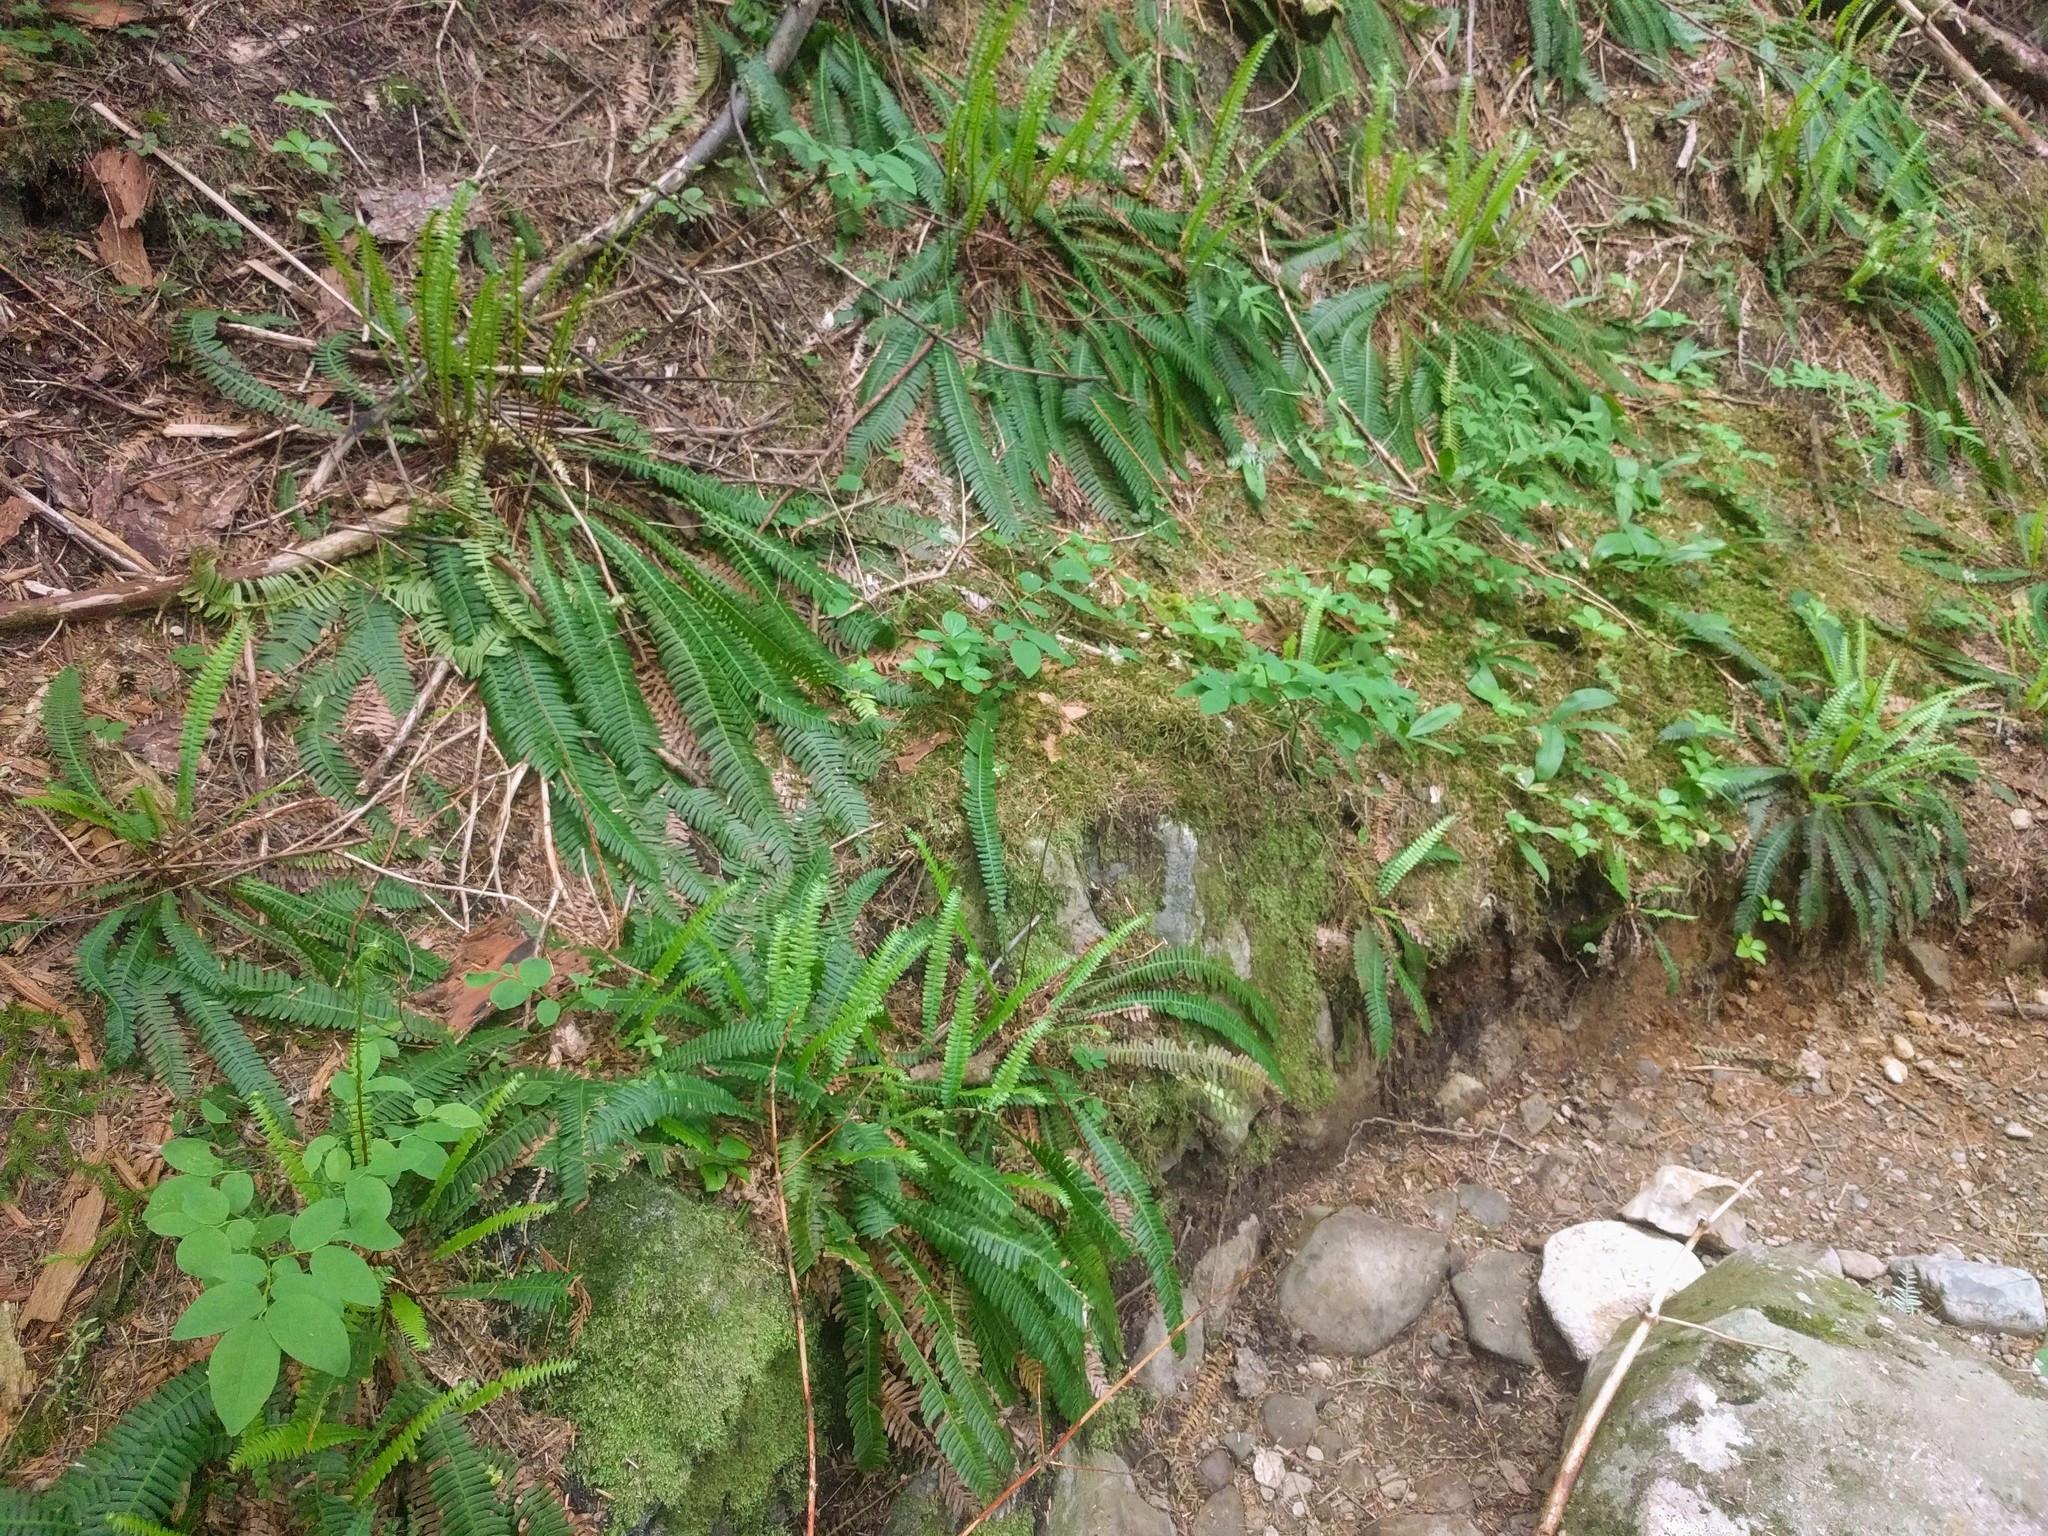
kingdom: Plantae
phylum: Tracheophyta
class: Polypodiopsida
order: Polypodiales
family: Blechnaceae
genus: Struthiopteris
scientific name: Struthiopteris spicant
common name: Deer fern
